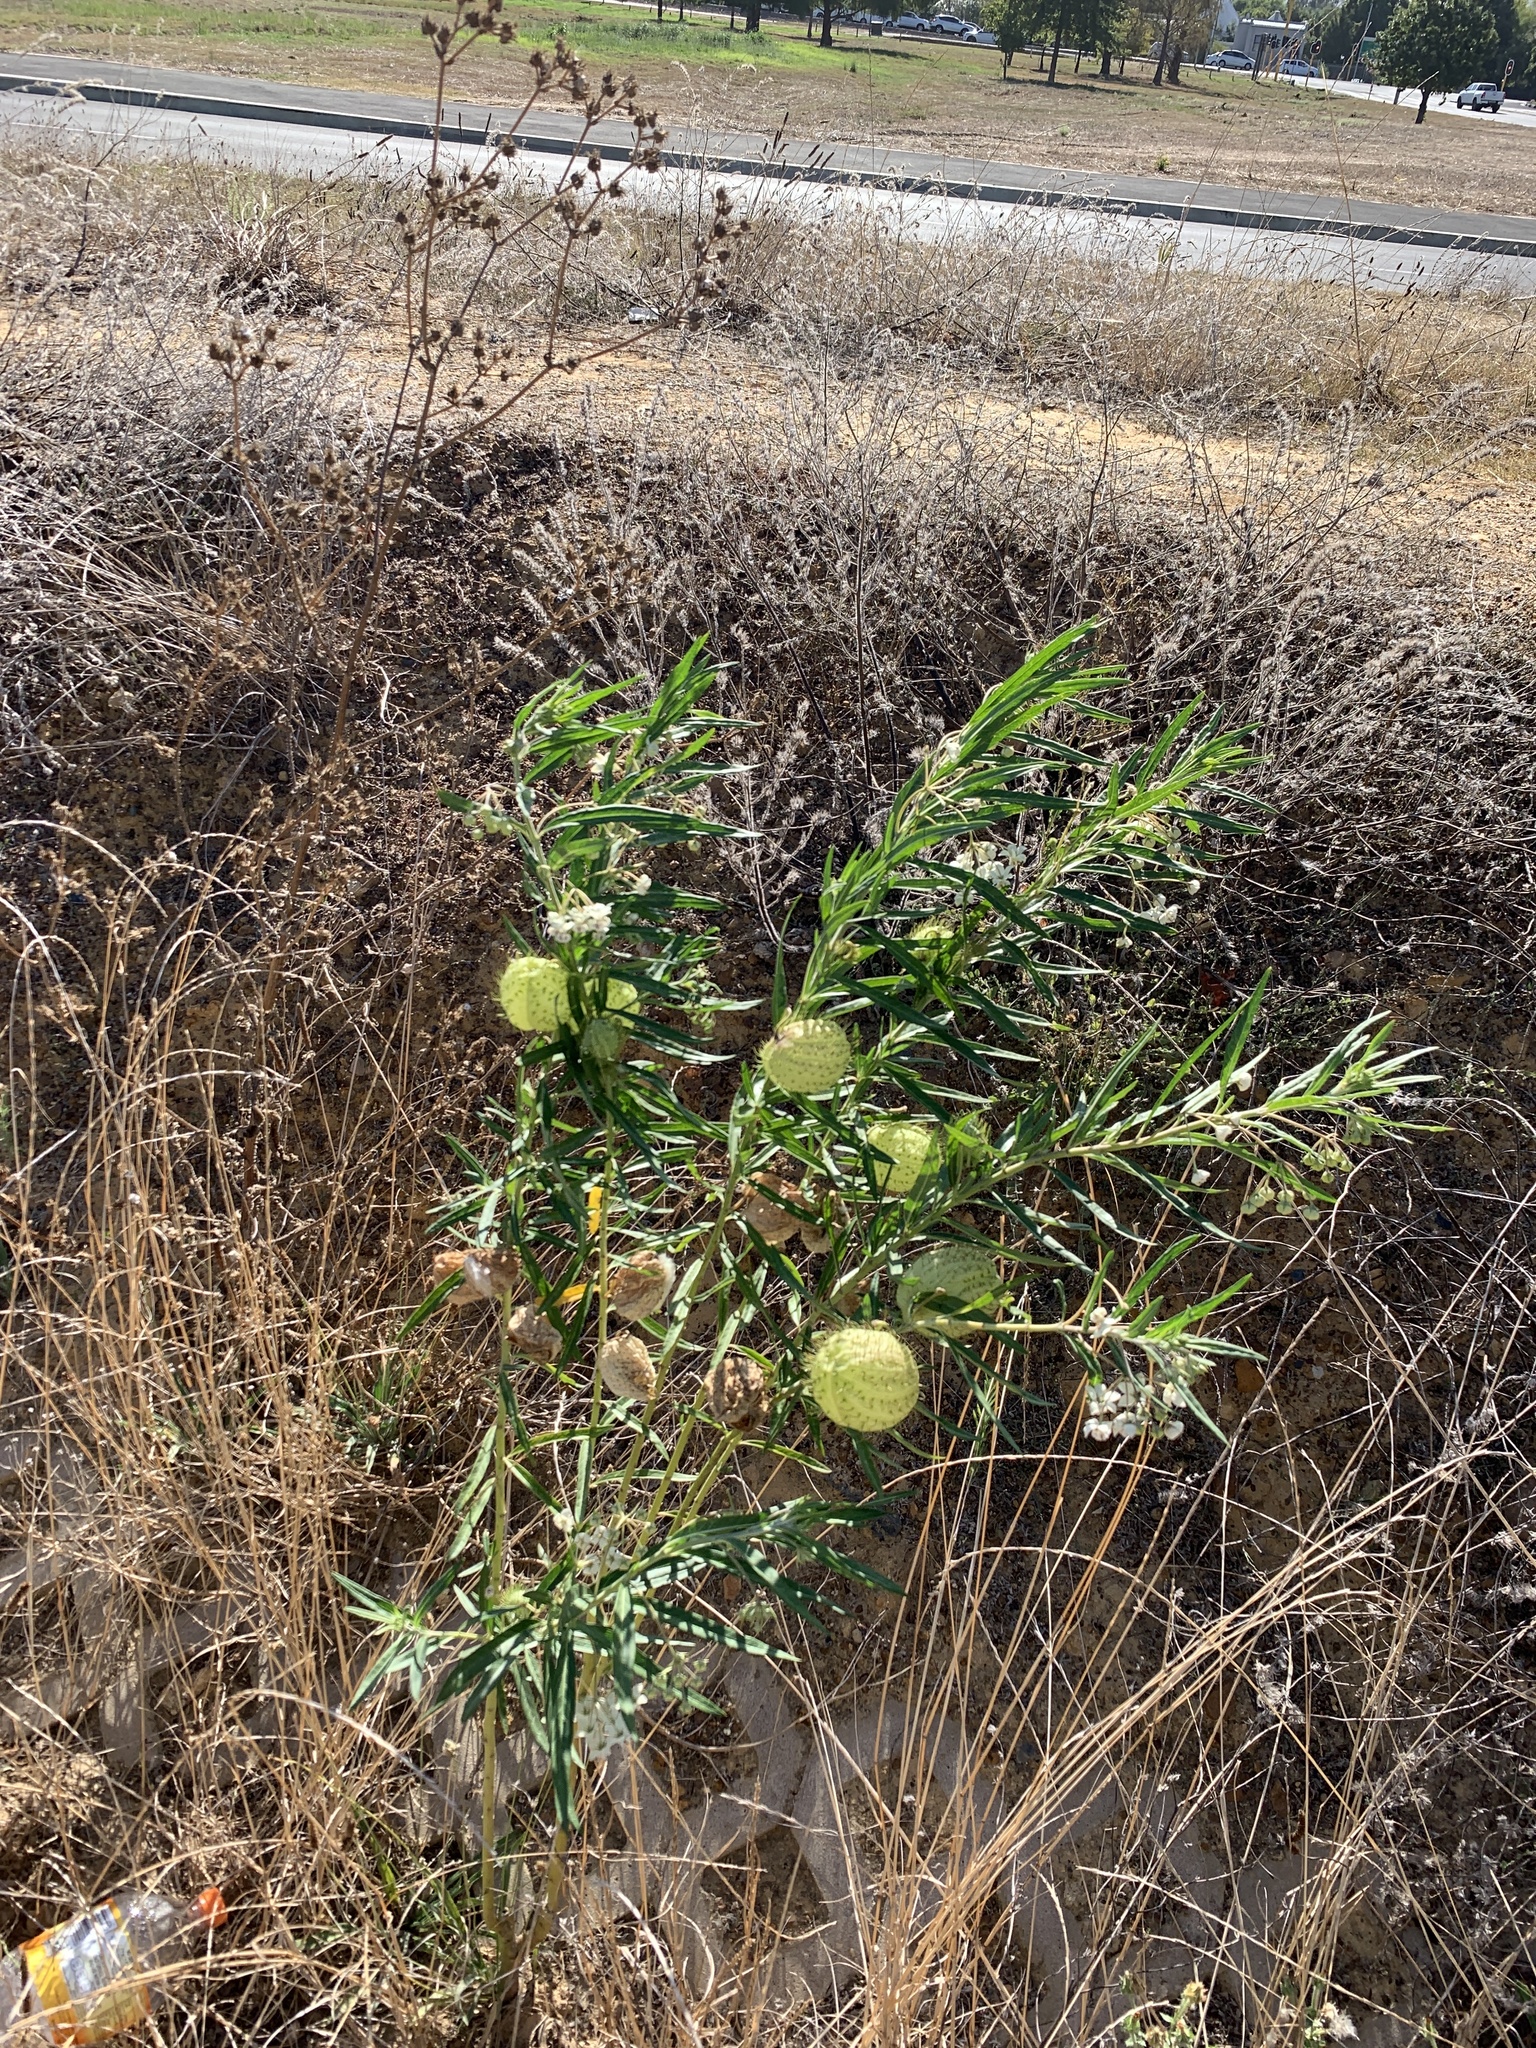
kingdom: Plantae
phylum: Tracheophyta
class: Magnoliopsida
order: Gentianales
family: Apocynaceae
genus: Gomphocarpus
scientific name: Gomphocarpus physocarpus
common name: Balloon cotton bush
